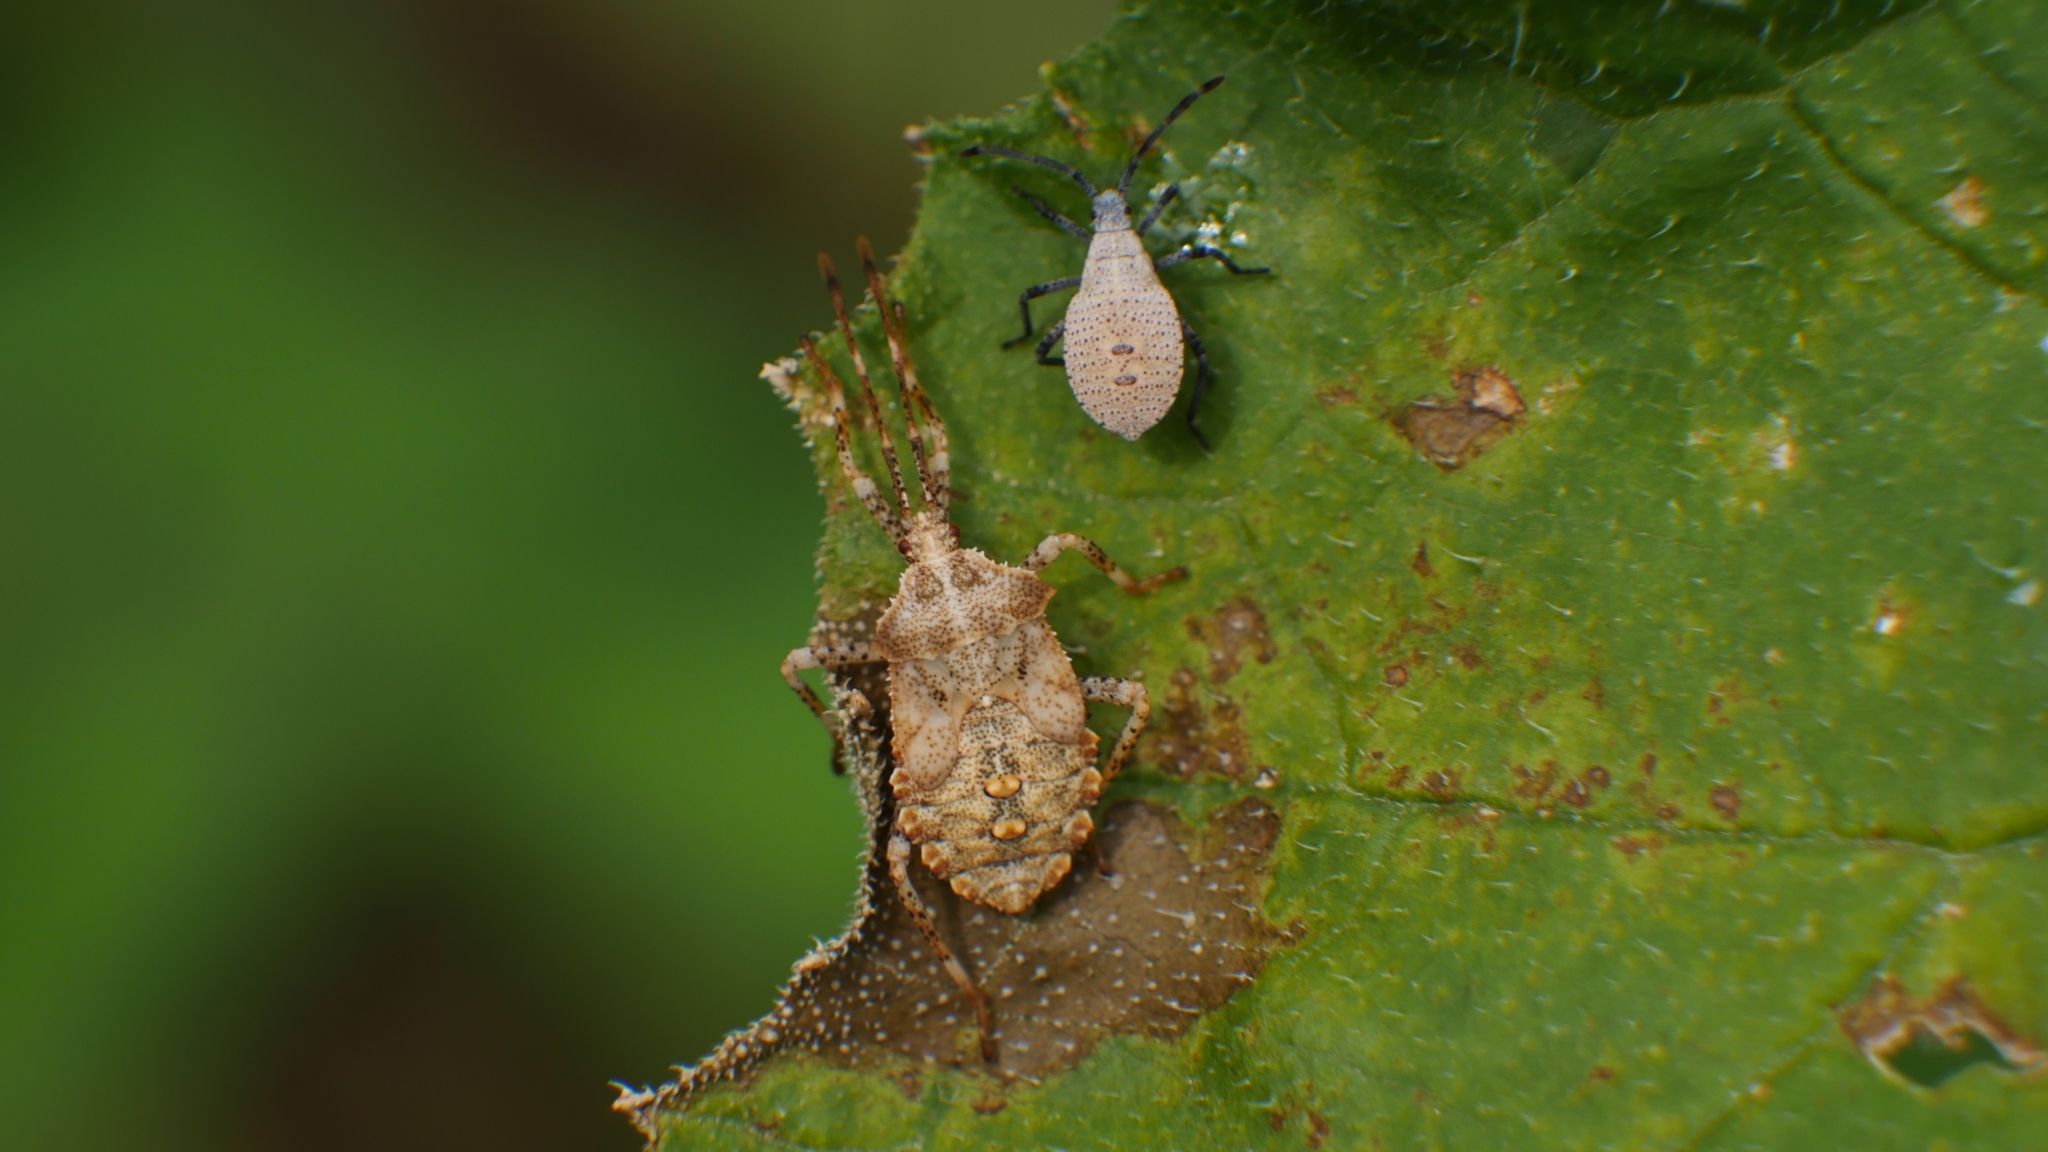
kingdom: Animalia
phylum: Arthropoda
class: Insecta
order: Hemiptera
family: Coreidae
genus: Anasa
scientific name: Anasa armigera
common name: Horned squash bug
